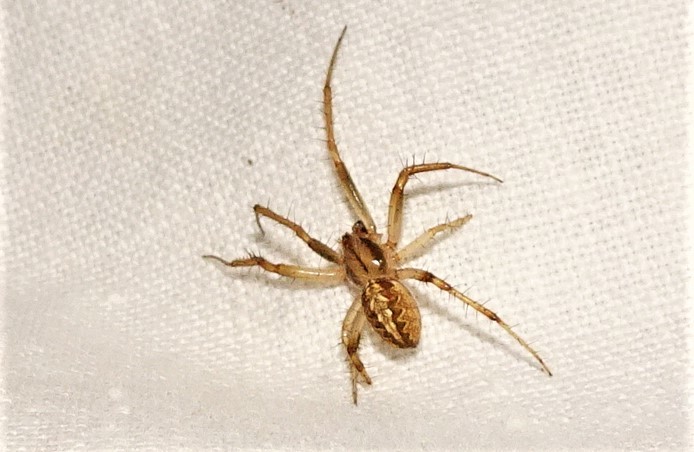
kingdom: Animalia
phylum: Arthropoda
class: Arachnida
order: Araneae
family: Araneidae
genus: Neoscona
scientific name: Neoscona theisi
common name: Spider
